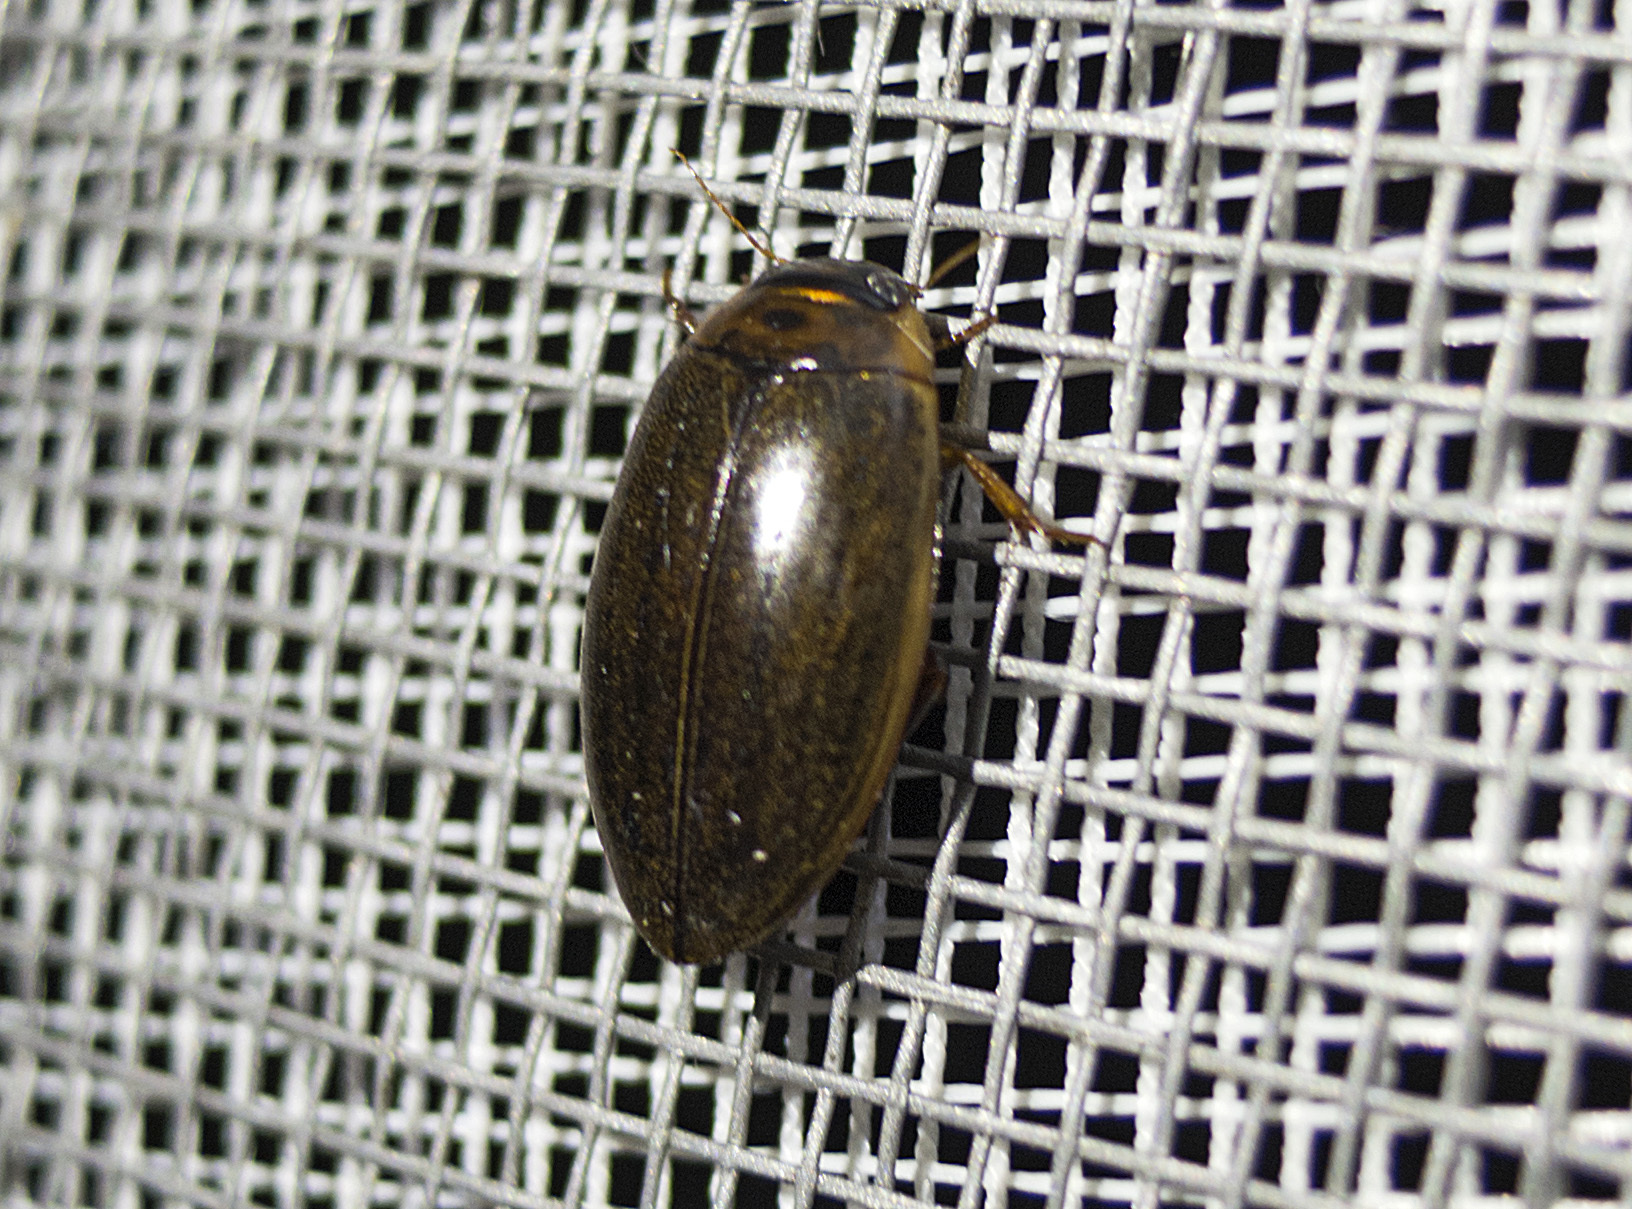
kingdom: Animalia
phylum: Arthropoda
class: Insecta
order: Coleoptera
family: Dytiscidae
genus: Rhantus
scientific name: Rhantus suturalis
